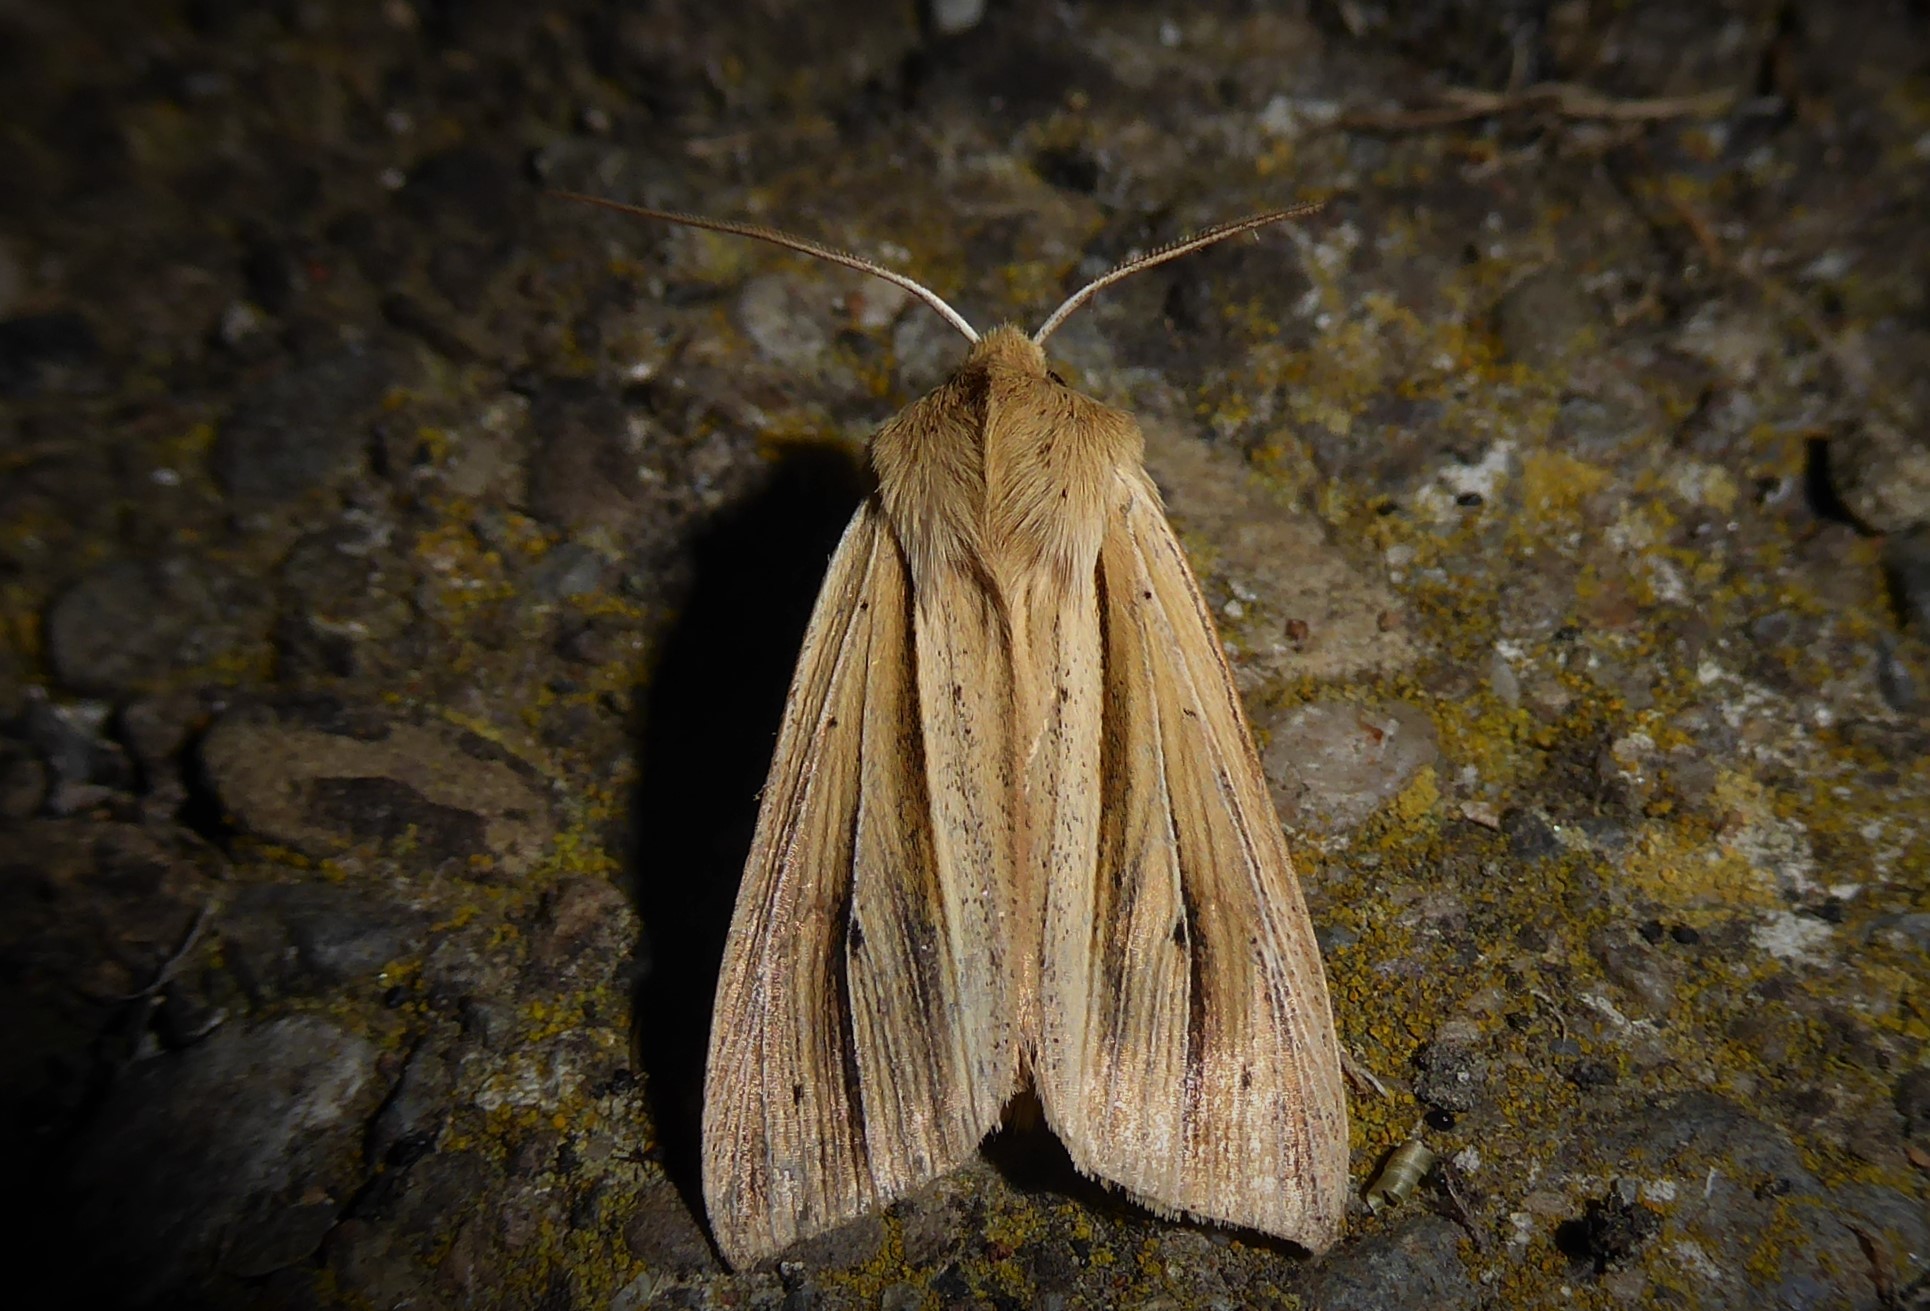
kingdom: Animalia
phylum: Arthropoda
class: Insecta
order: Lepidoptera
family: Noctuidae
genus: Ichneutica
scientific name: Ichneutica sulcana
